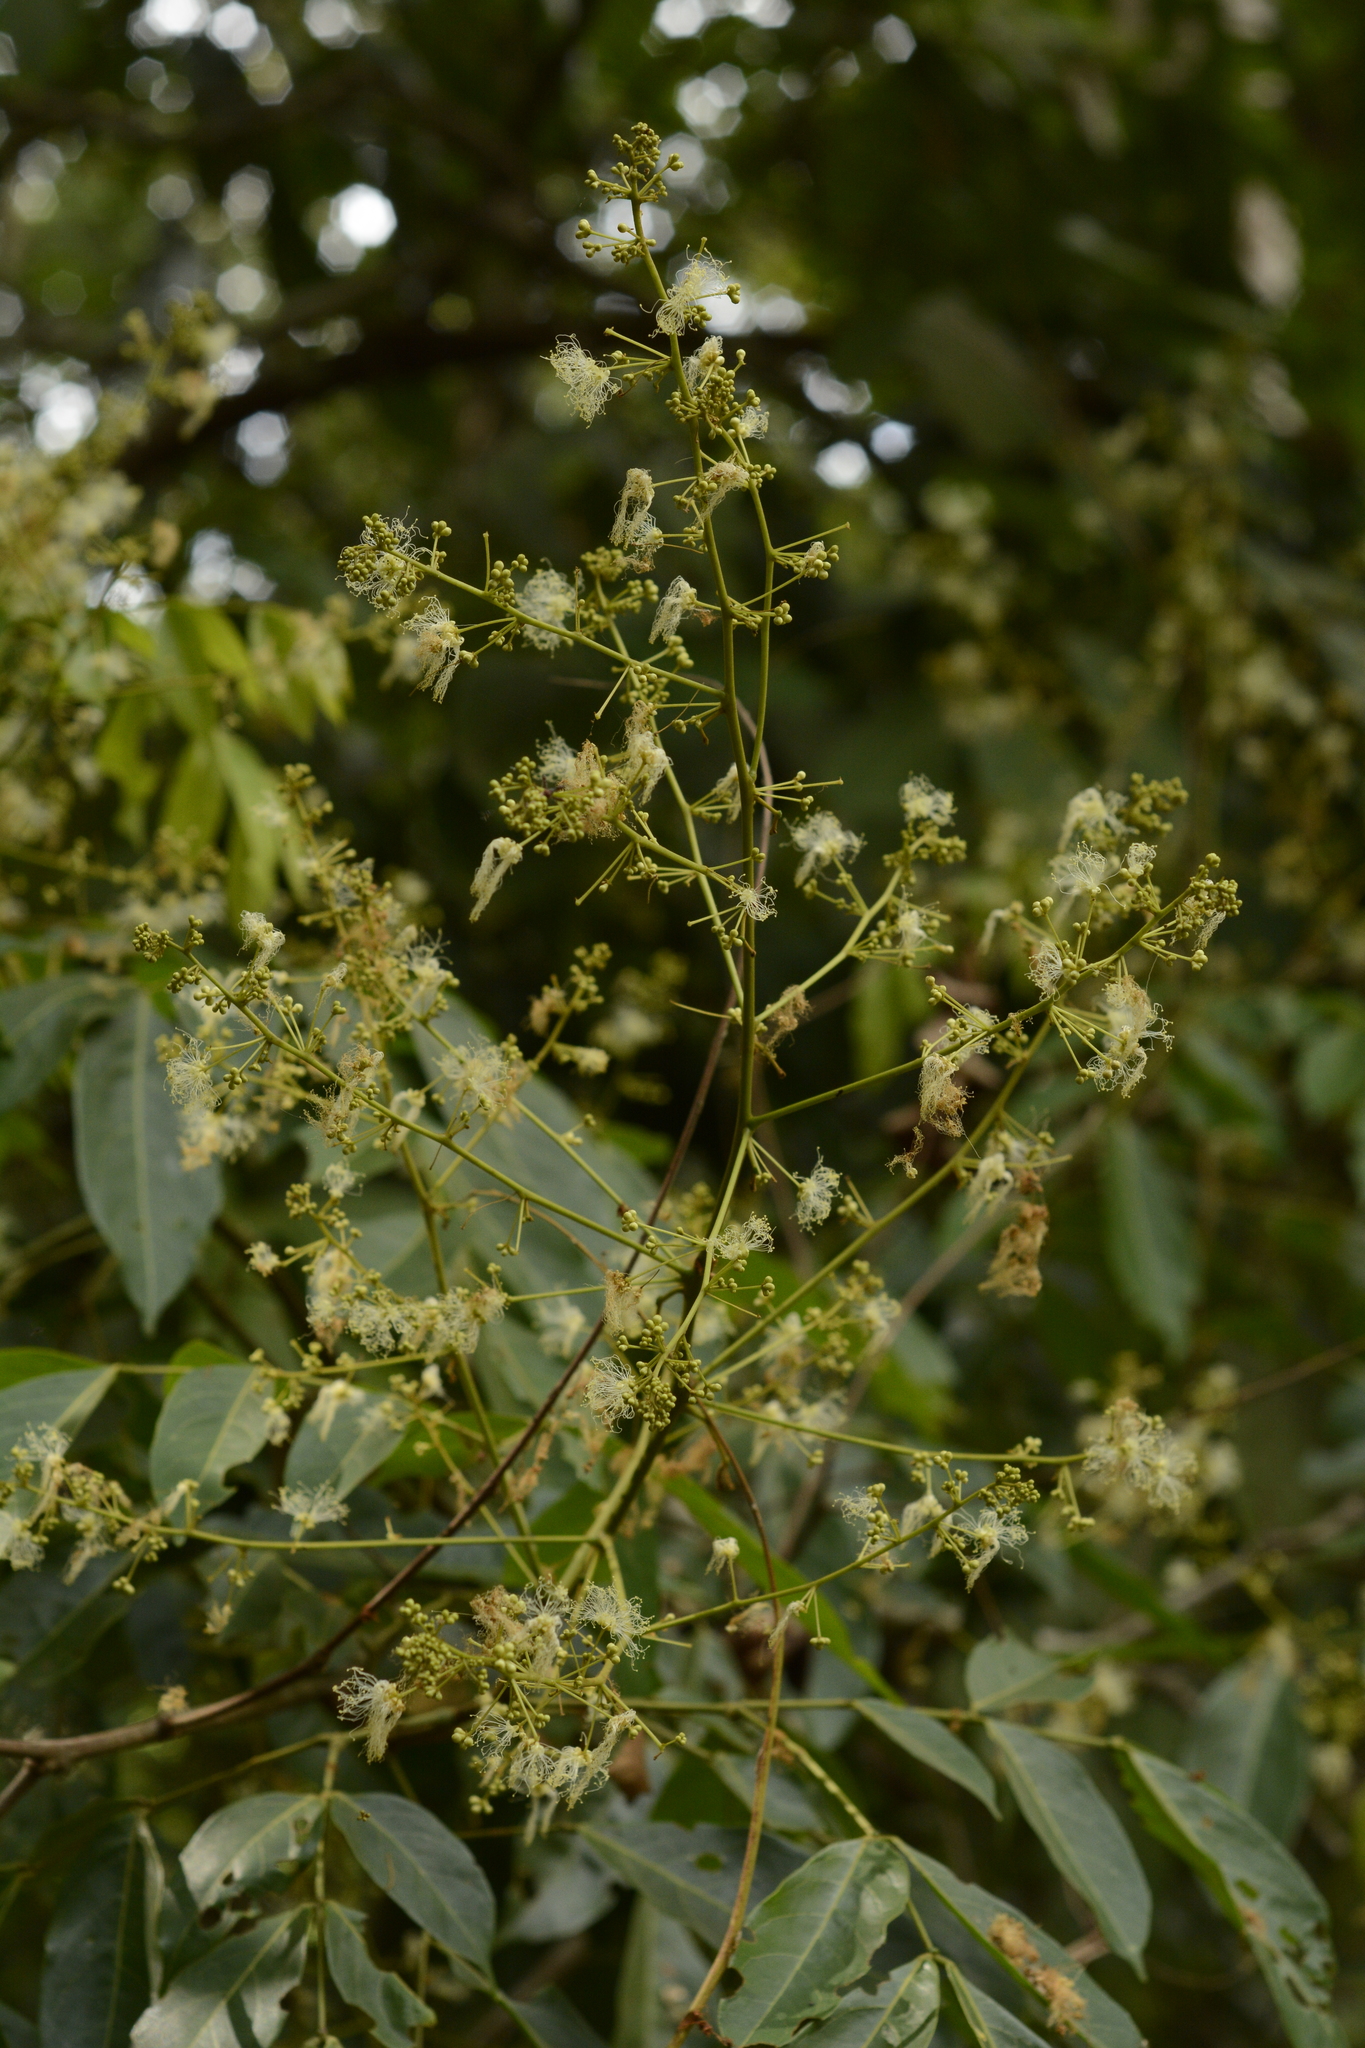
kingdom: Plantae
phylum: Tracheophyta
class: Magnoliopsida
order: Fabales
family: Fabaceae
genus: Archidendron
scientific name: Archidendron bigeminum
